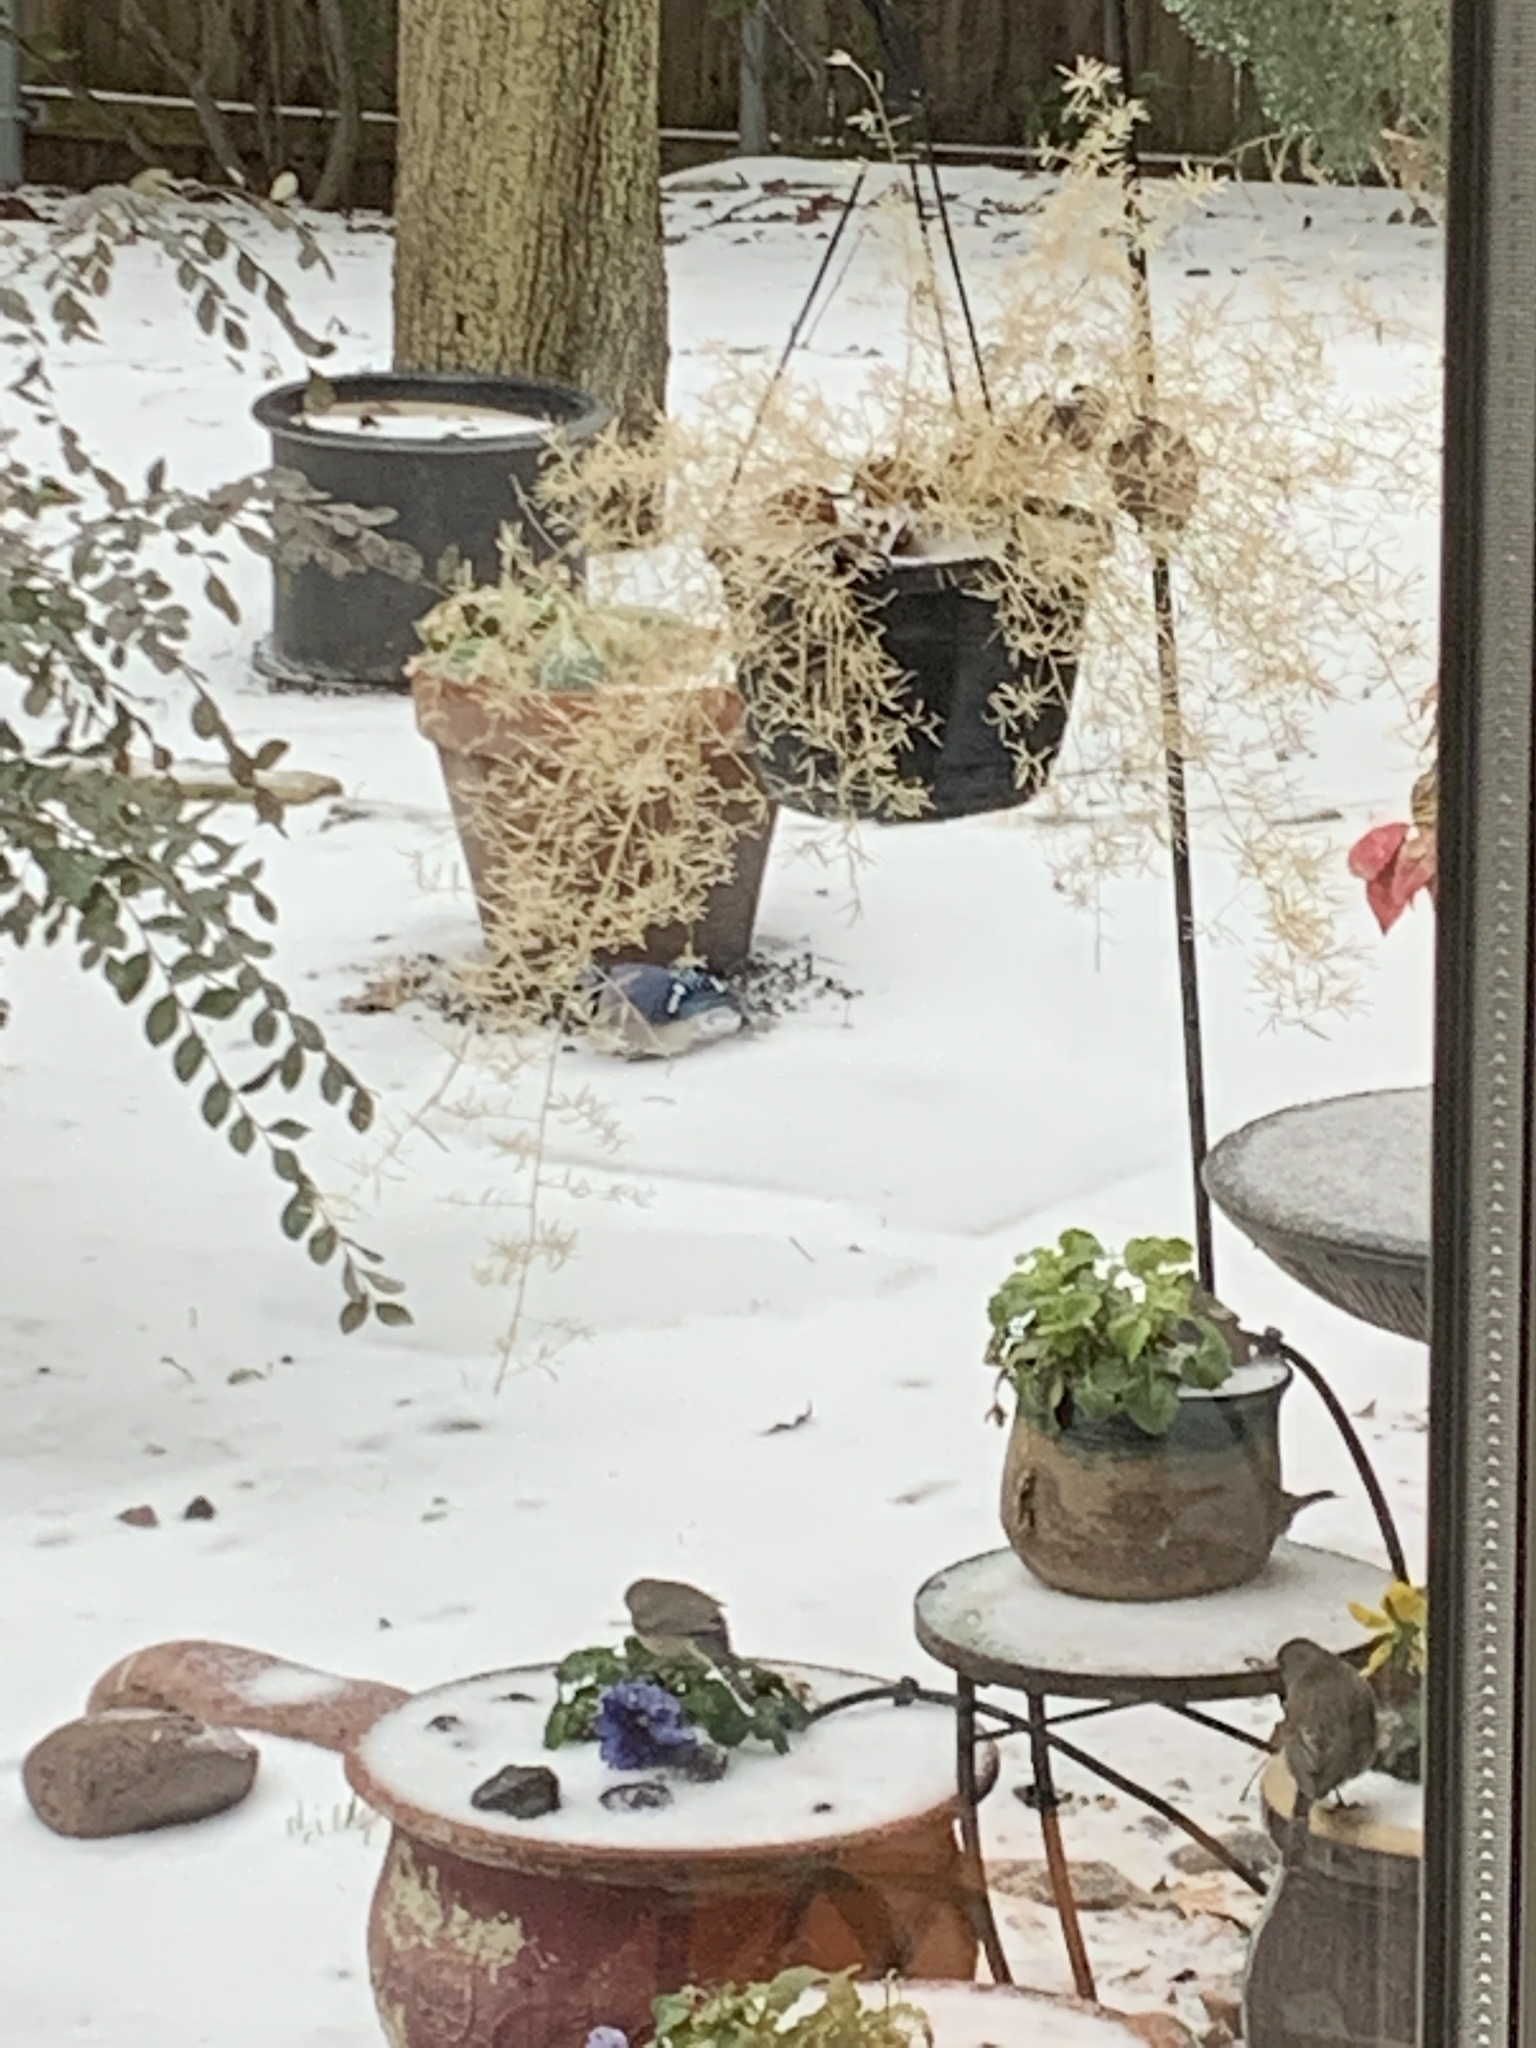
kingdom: Animalia
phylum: Chordata
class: Aves
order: Passeriformes
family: Corvidae
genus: Cyanocitta
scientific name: Cyanocitta cristata
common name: Blue jay
